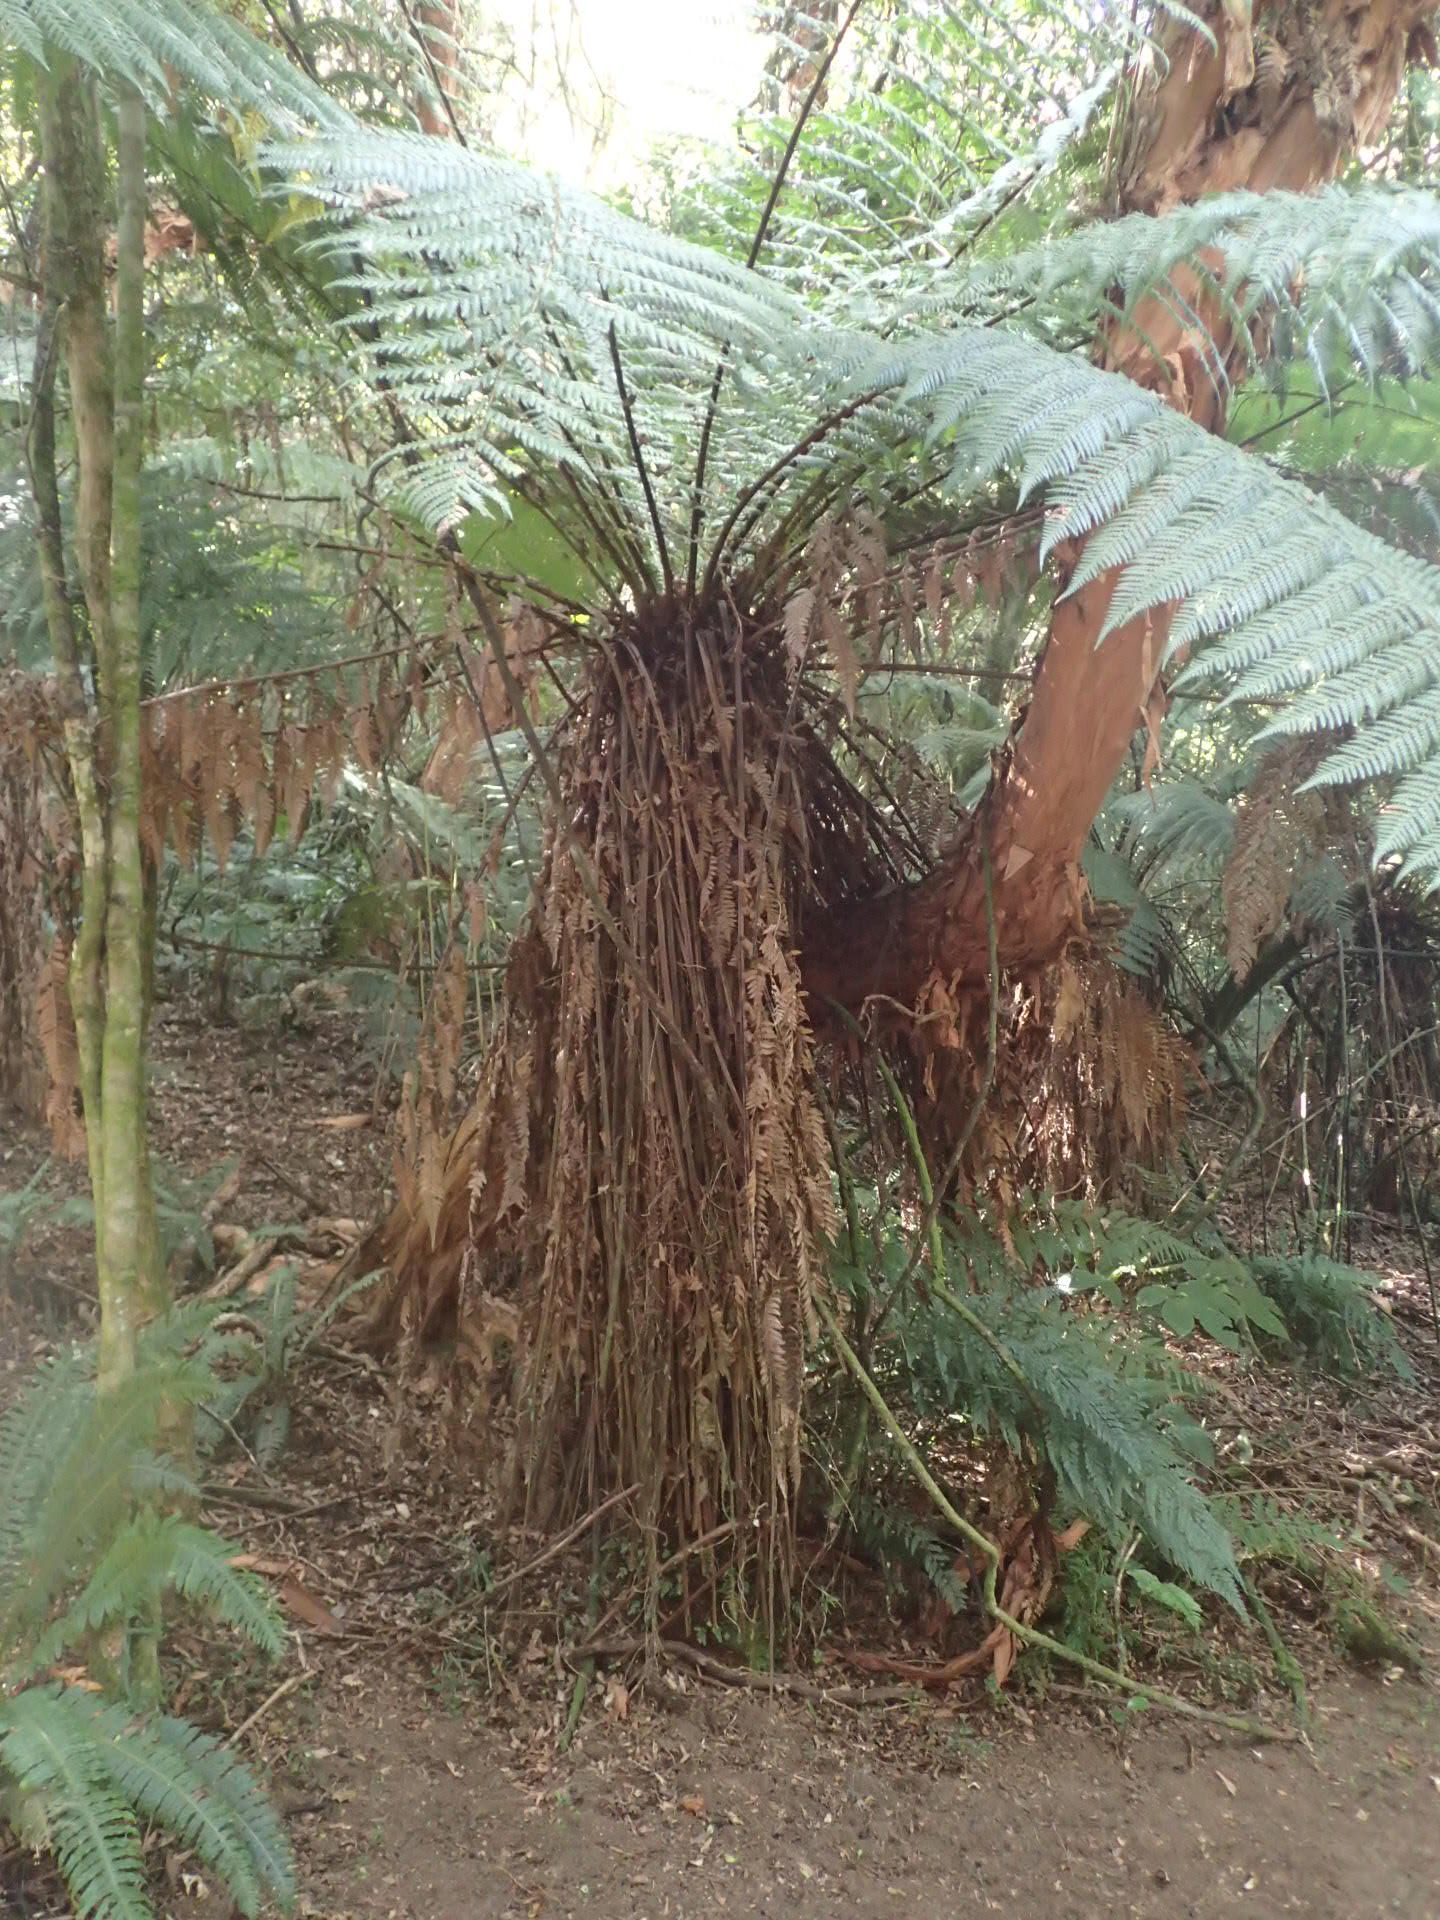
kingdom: Plantae
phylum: Tracheophyta
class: Polypodiopsida
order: Cyatheales
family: Dicksoniaceae
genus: Dicksonia
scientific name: Dicksonia fibrosa
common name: Golden tree fern
